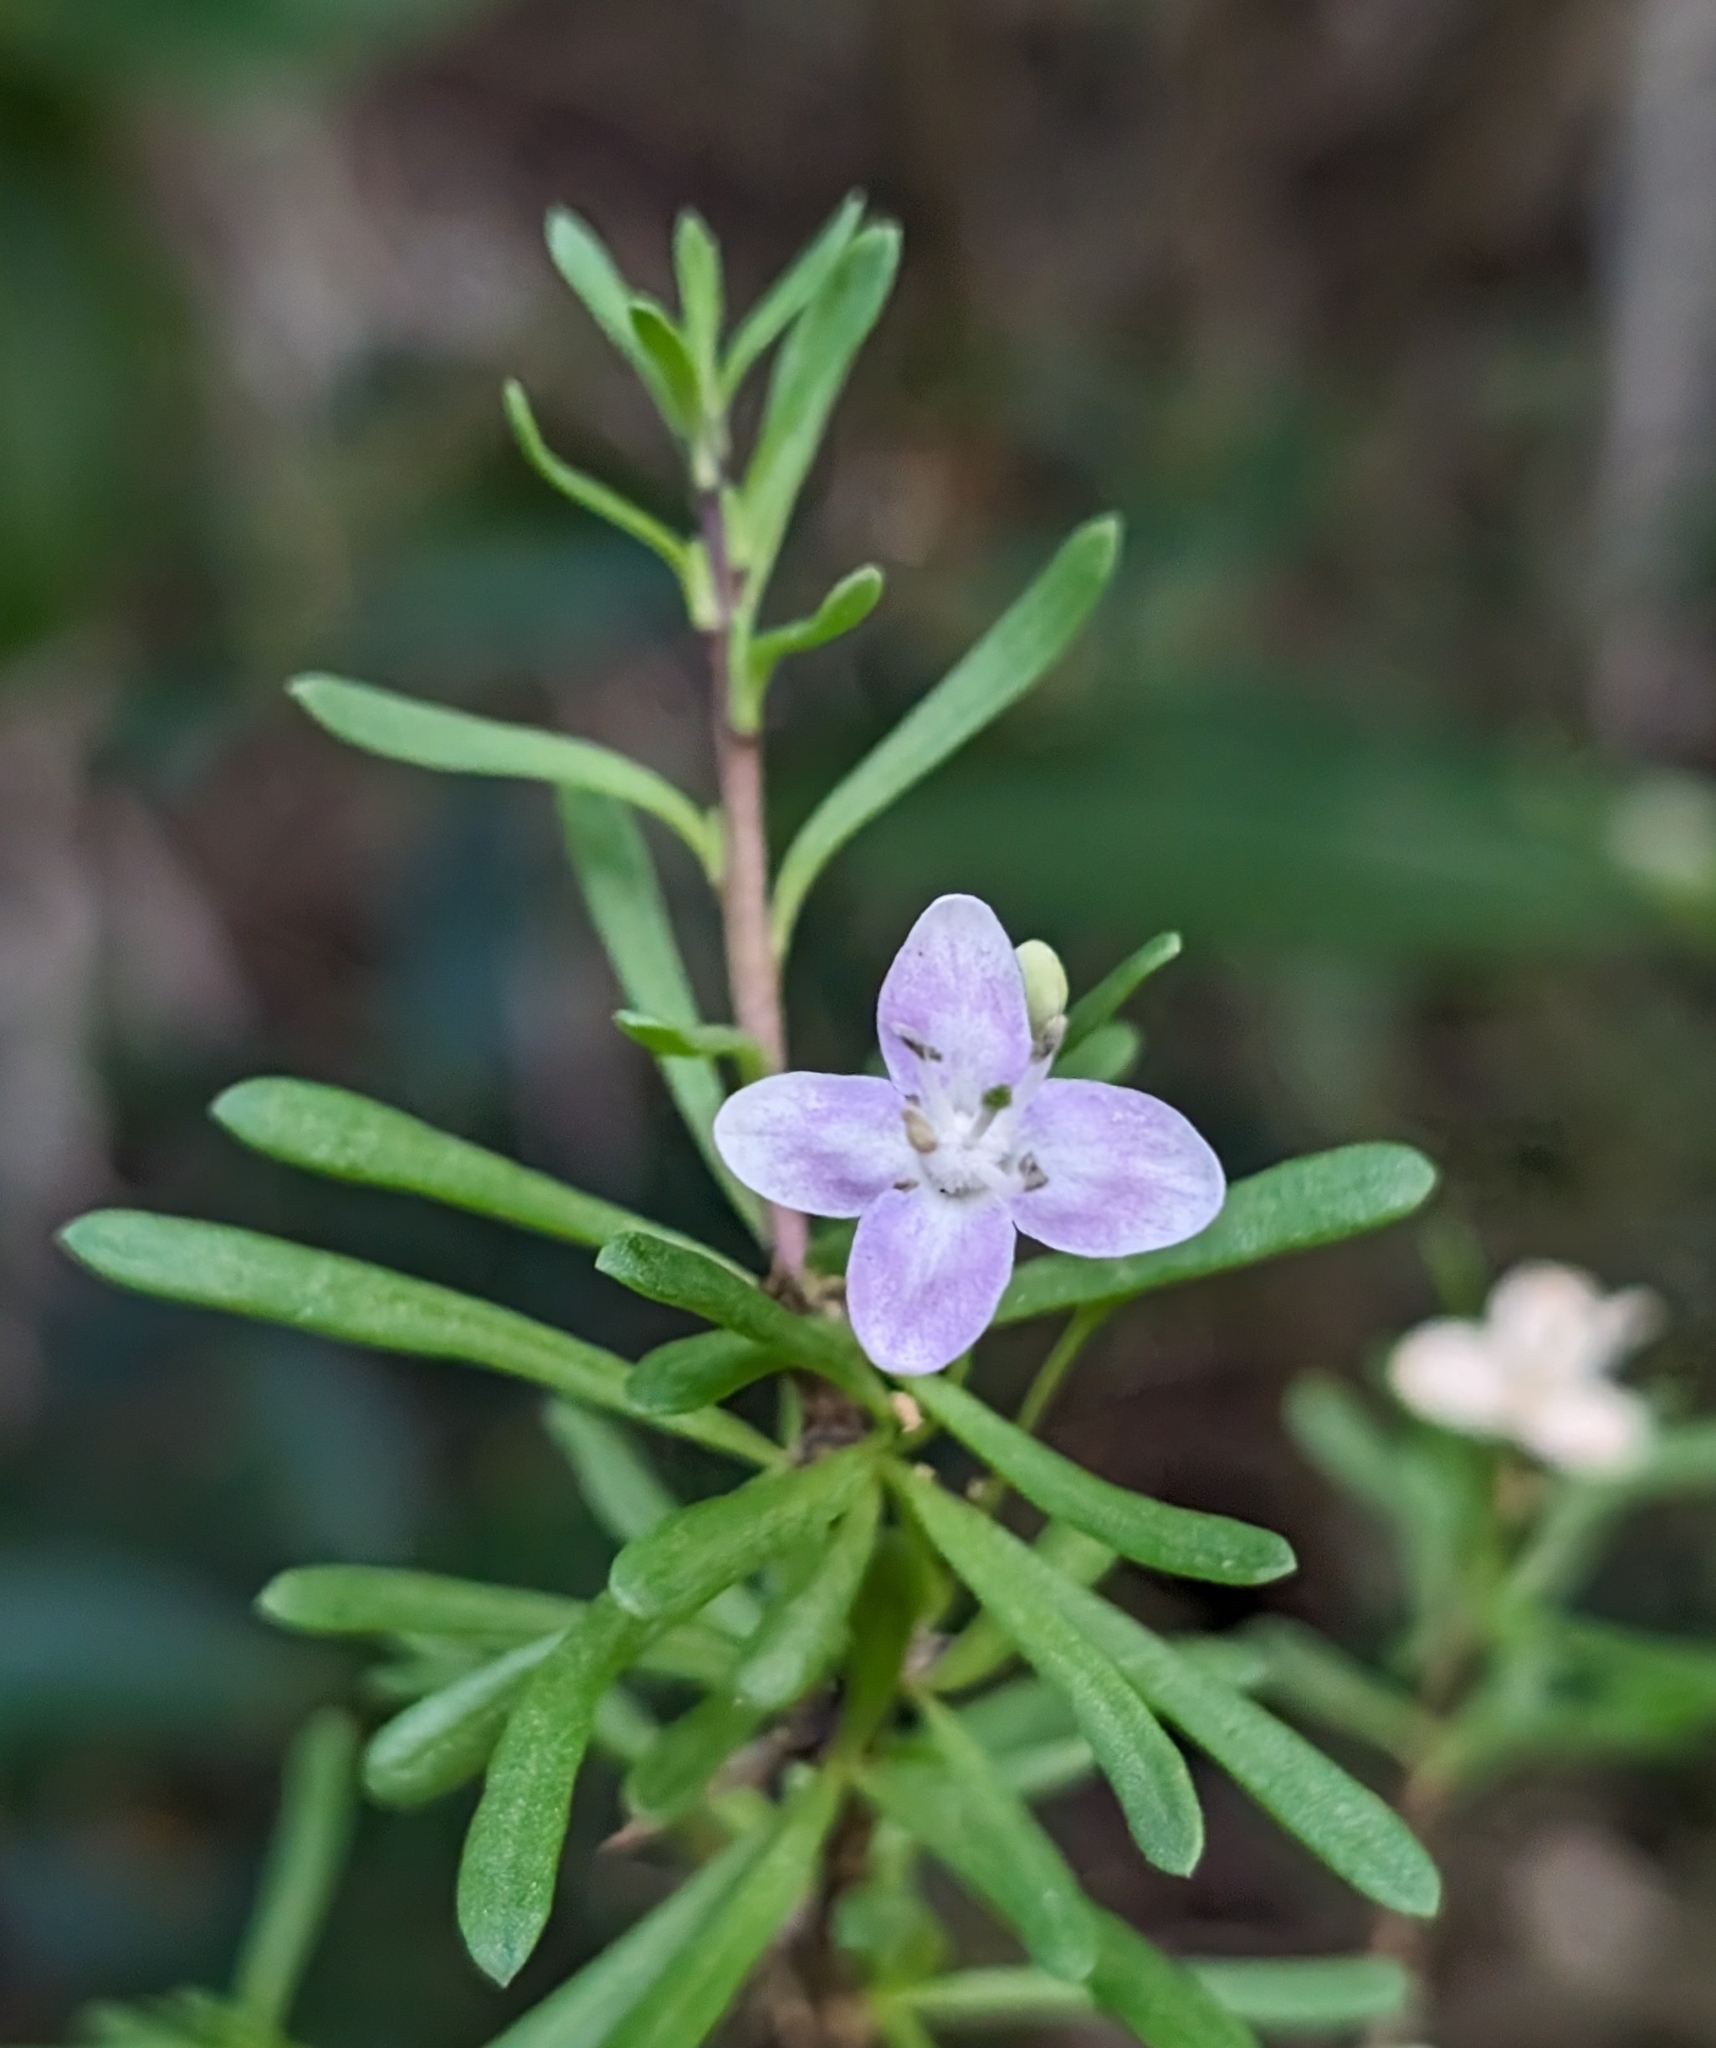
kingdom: Plantae
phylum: Tracheophyta
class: Magnoliopsida
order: Solanales
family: Solanaceae
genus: Lycium
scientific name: Lycium carolinianum
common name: Christmasberry
